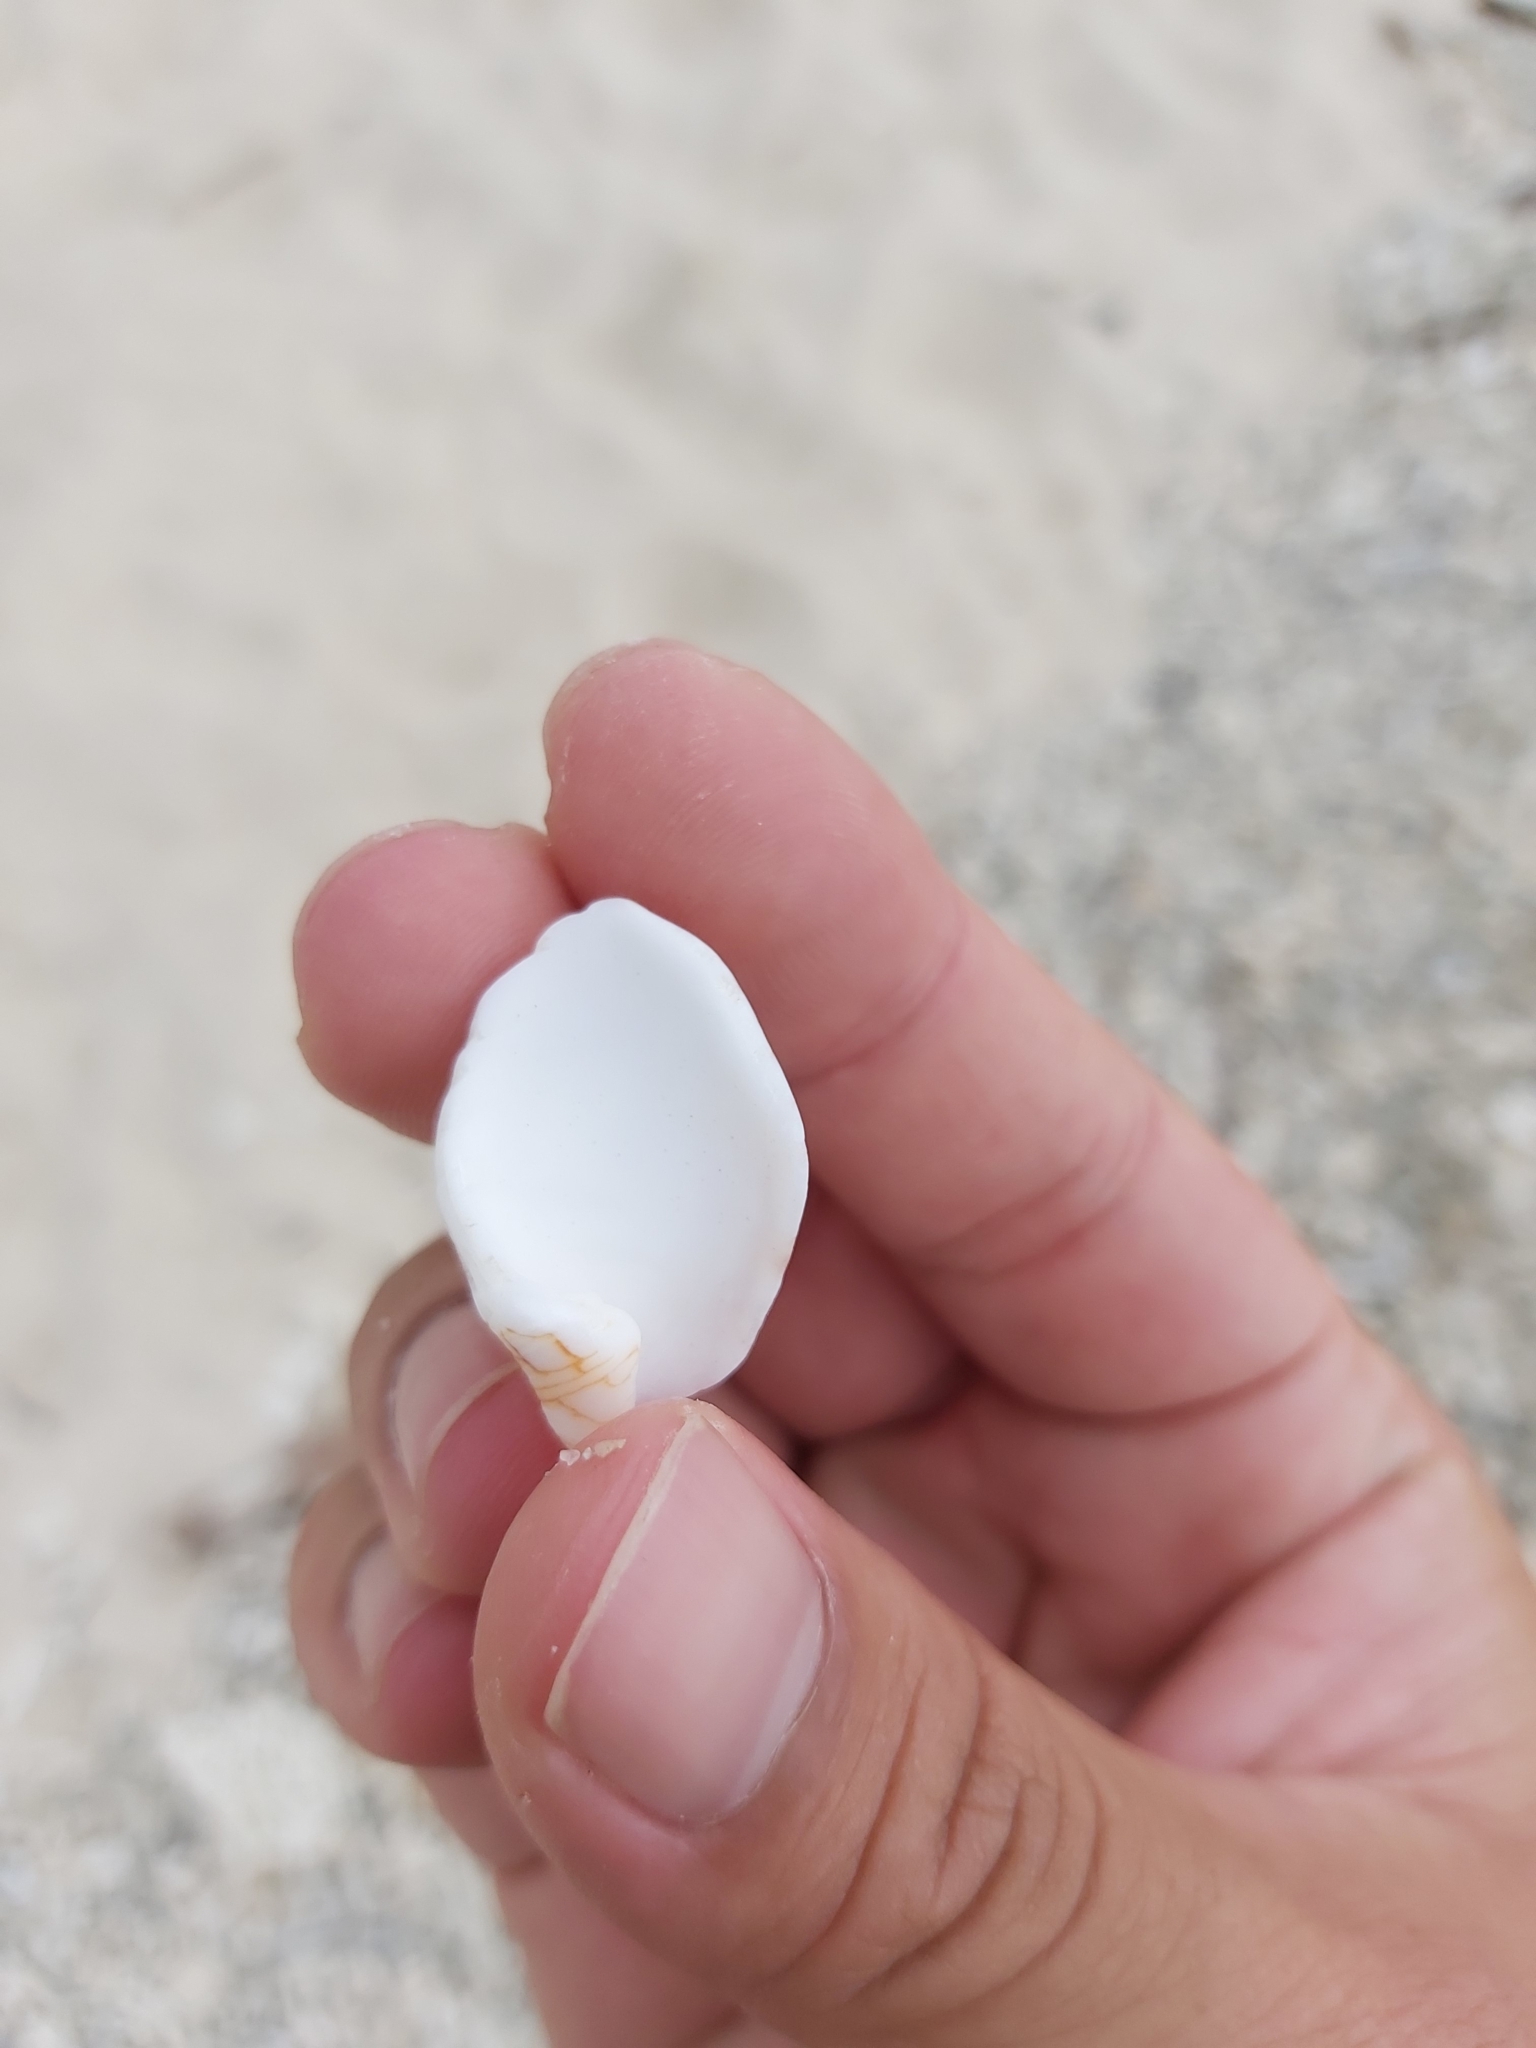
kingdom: Animalia
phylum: Mollusca
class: Gastropoda
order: Neogastropoda
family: Conidae
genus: Conus
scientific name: Conus textile
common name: Cloth-of-gold cone
